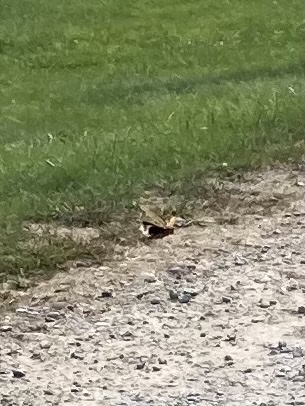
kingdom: Animalia
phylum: Arthropoda
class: Insecta
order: Orthoptera
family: Acrididae
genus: Dissosteira
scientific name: Dissosteira carolina
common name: Carolina grasshopper
